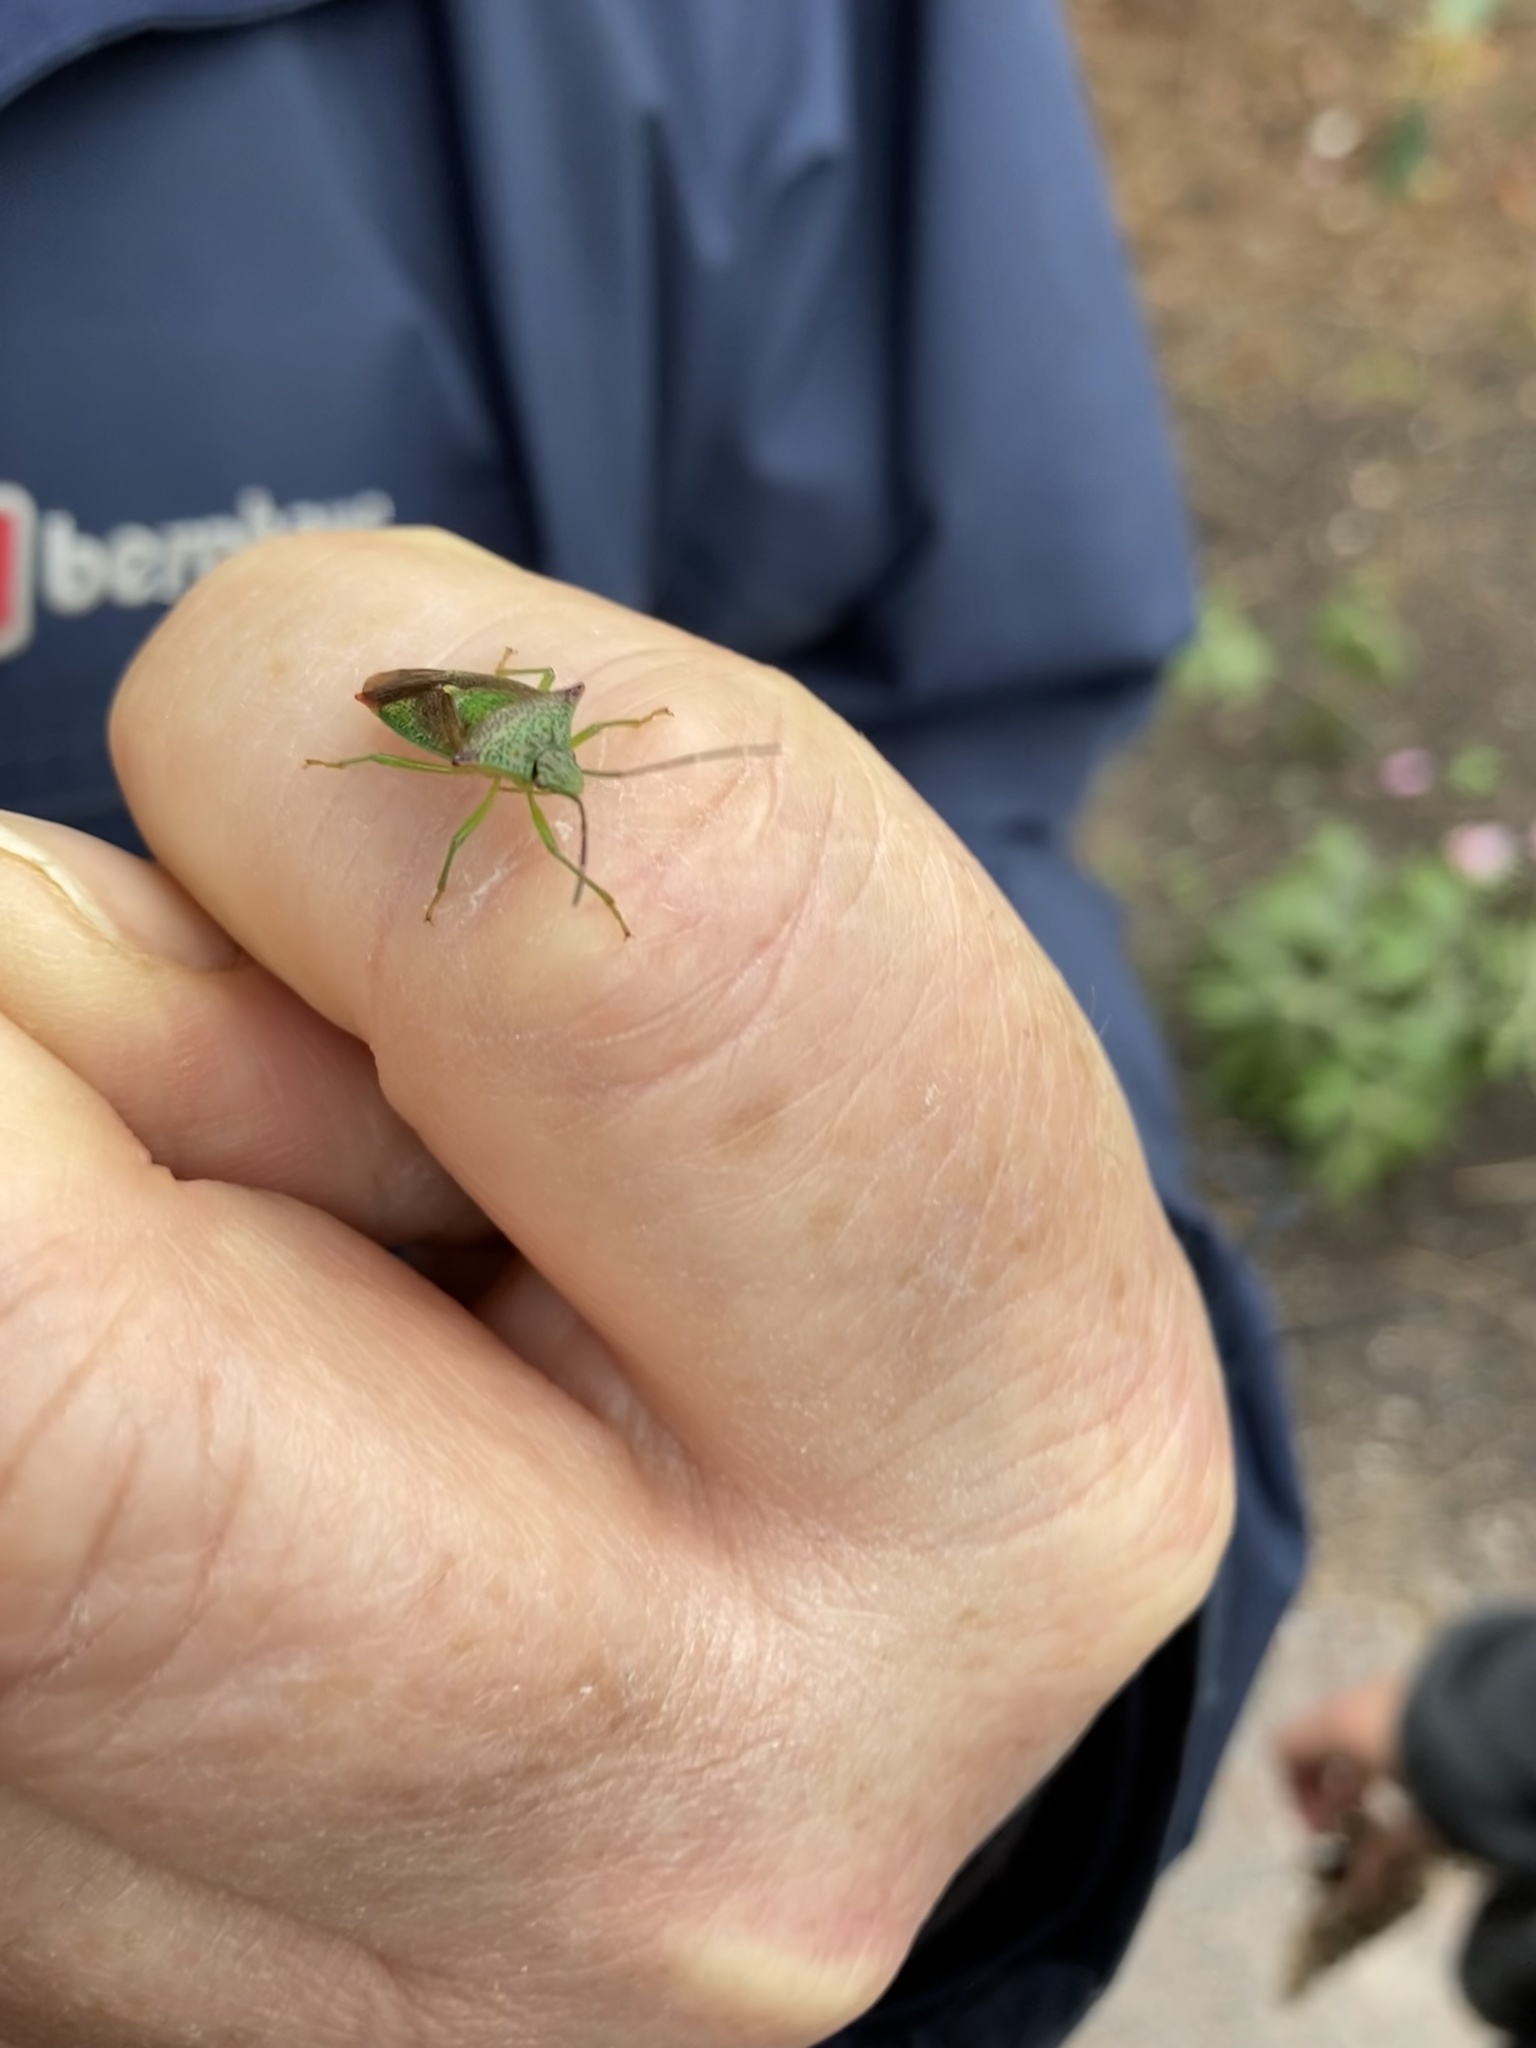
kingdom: Animalia
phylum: Arthropoda
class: Insecta
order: Hemiptera
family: Acanthosomatidae
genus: Acanthosoma
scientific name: Acanthosoma haemorrhoidale
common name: Hawthorn shieldbug
